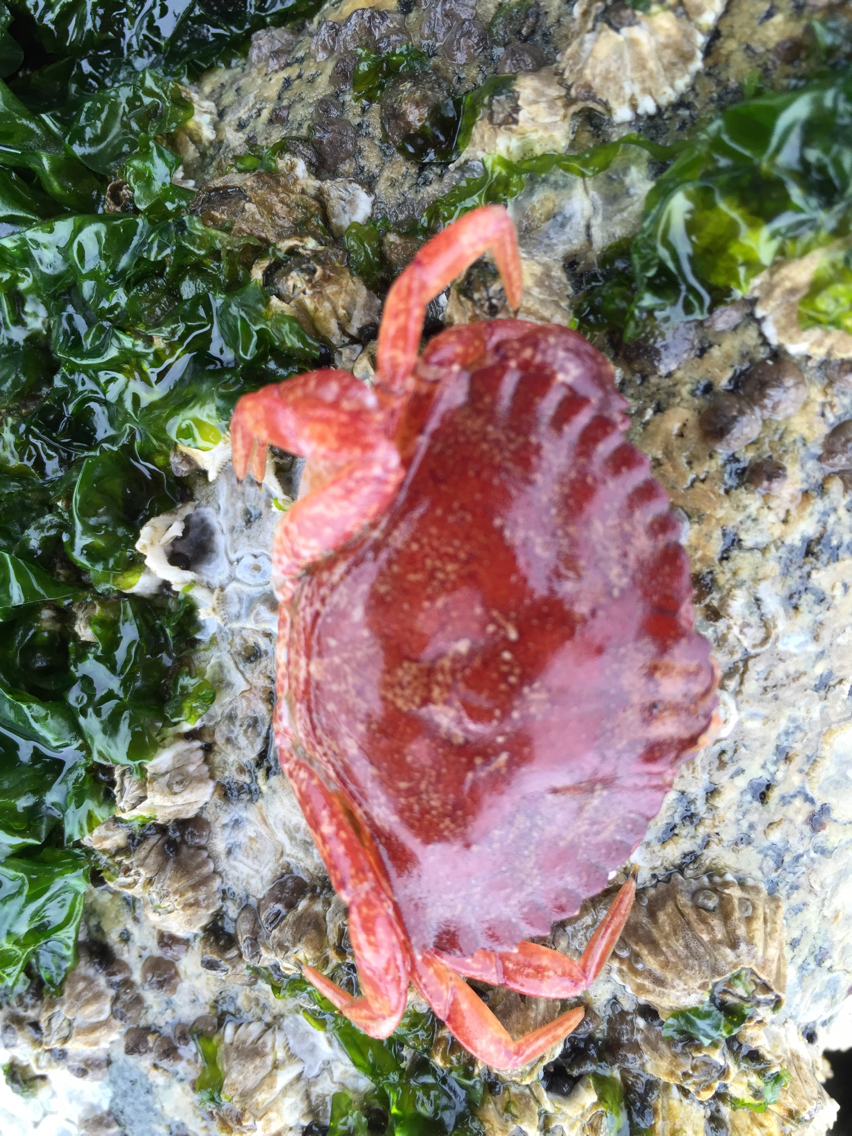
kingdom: Animalia
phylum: Arthropoda
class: Malacostraca
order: Decapoda
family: Cancridae
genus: Cancer
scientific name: Cancer productus
